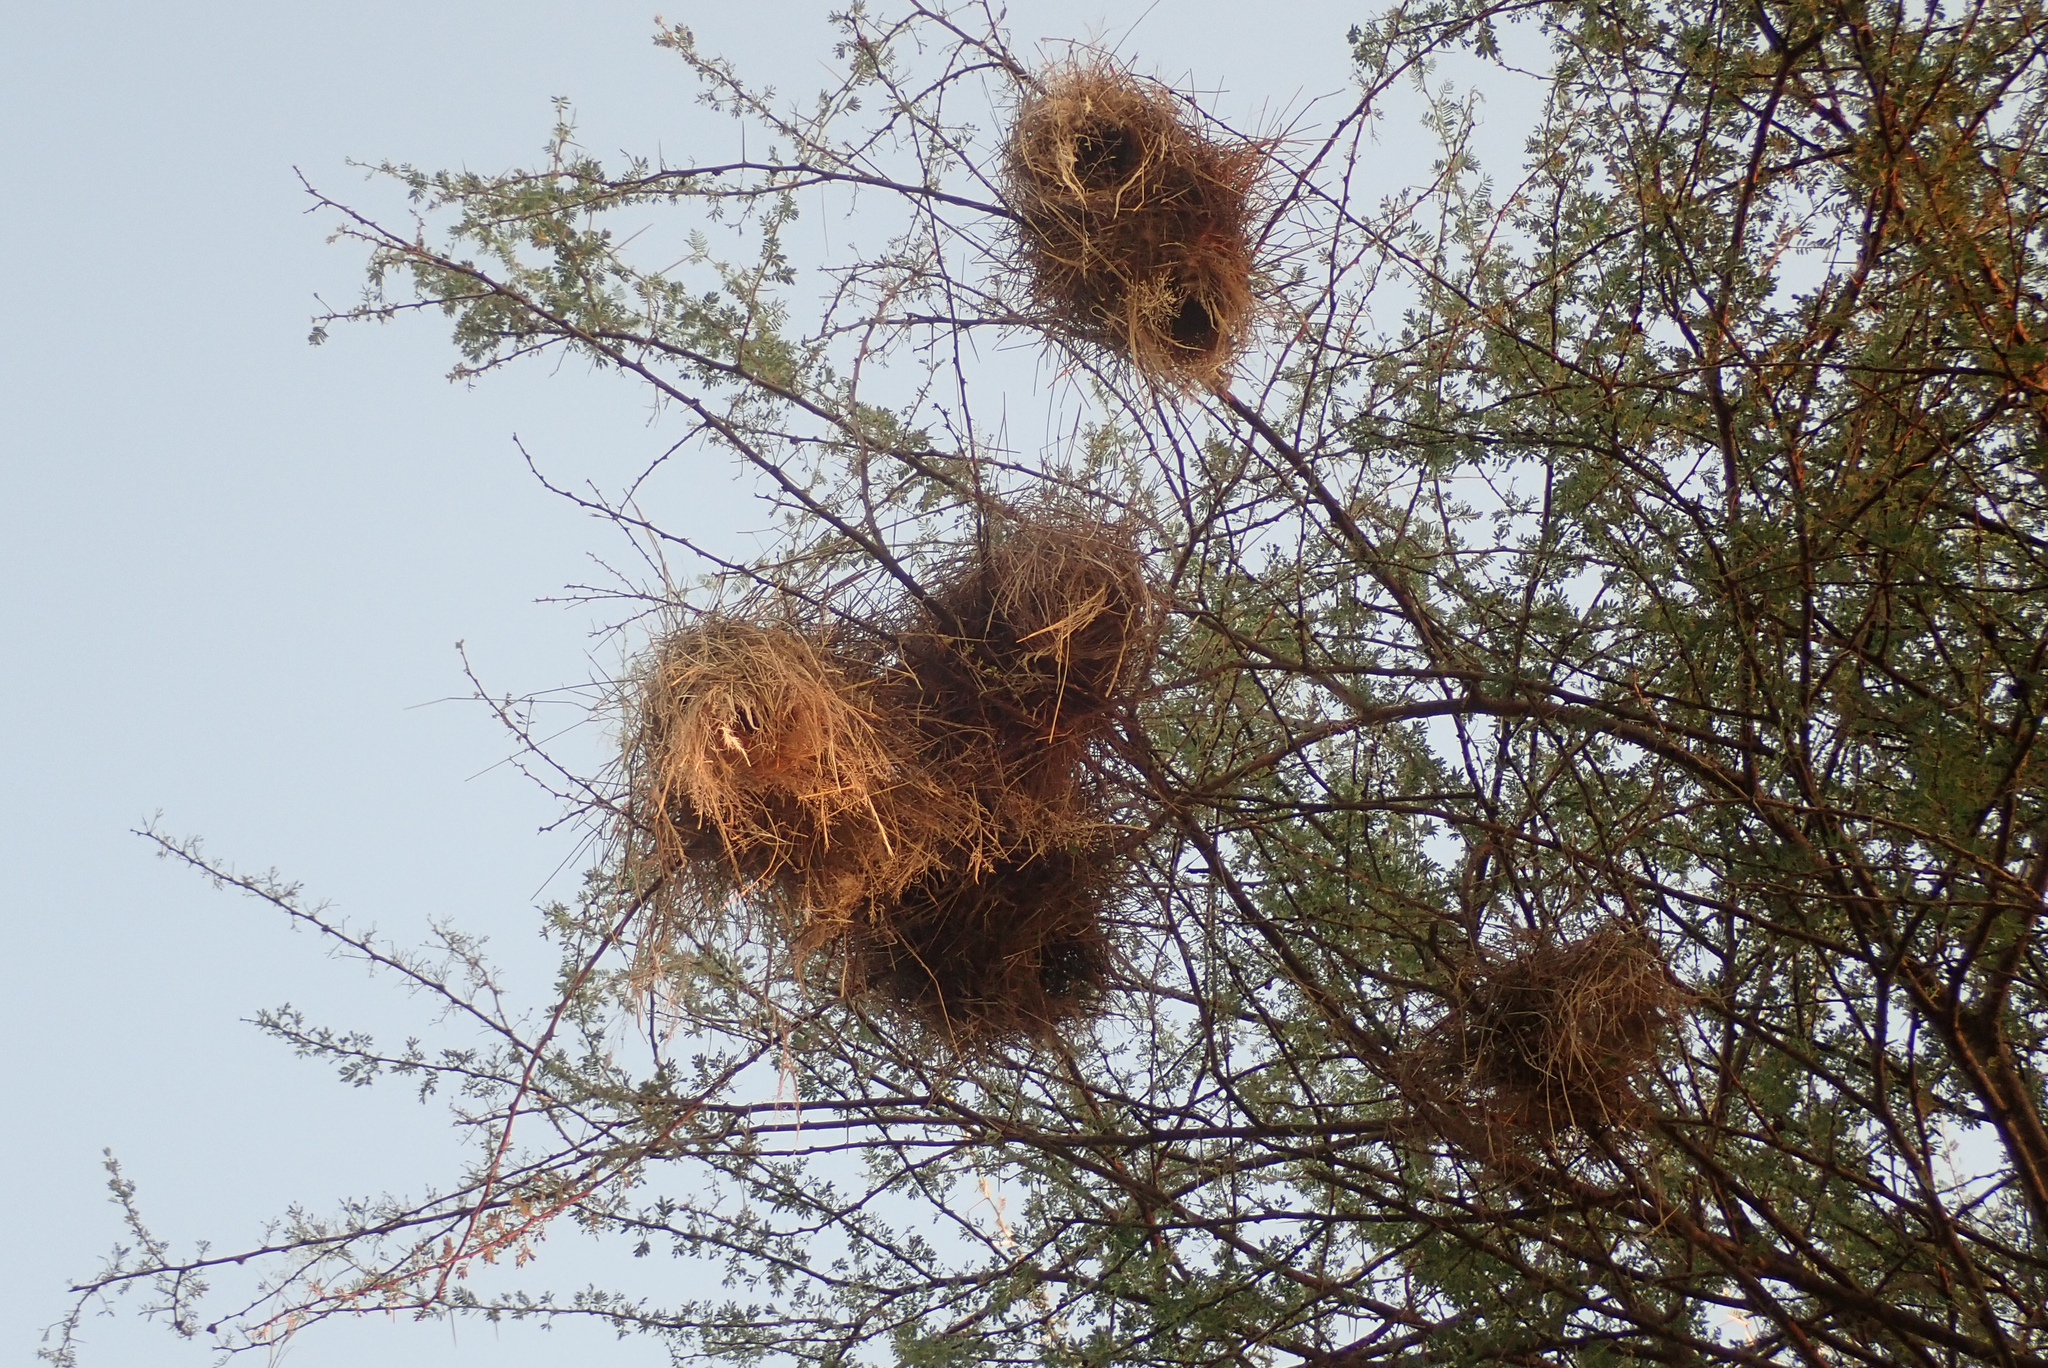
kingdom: Animalia
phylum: Chordata
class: Aves
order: Passeriformes
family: Passeridae
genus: Plocepasser
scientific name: Plocepasser mahali
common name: White-browed sparrow-weaver
